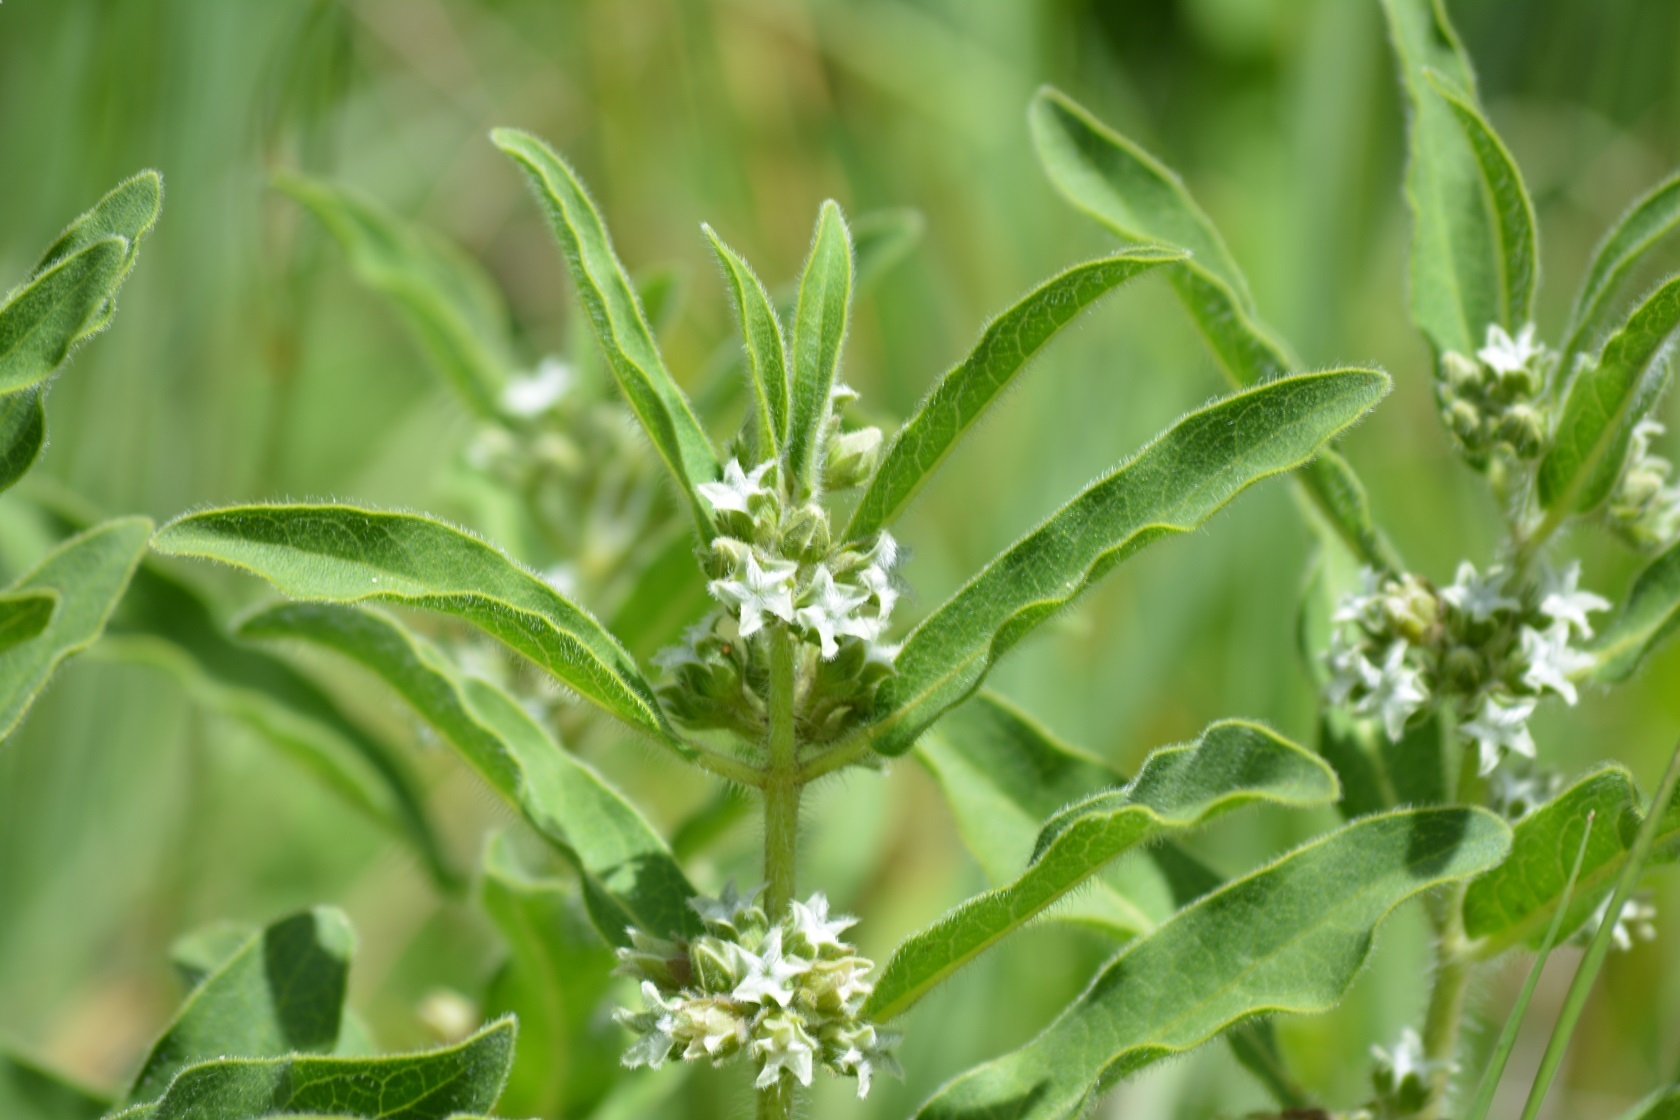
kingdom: Plantae
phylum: Tracheophyta
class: Magnoliopsida
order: Gentianales
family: Apocynaceae
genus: Pherotrichis
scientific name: Pherotrichis villosa
